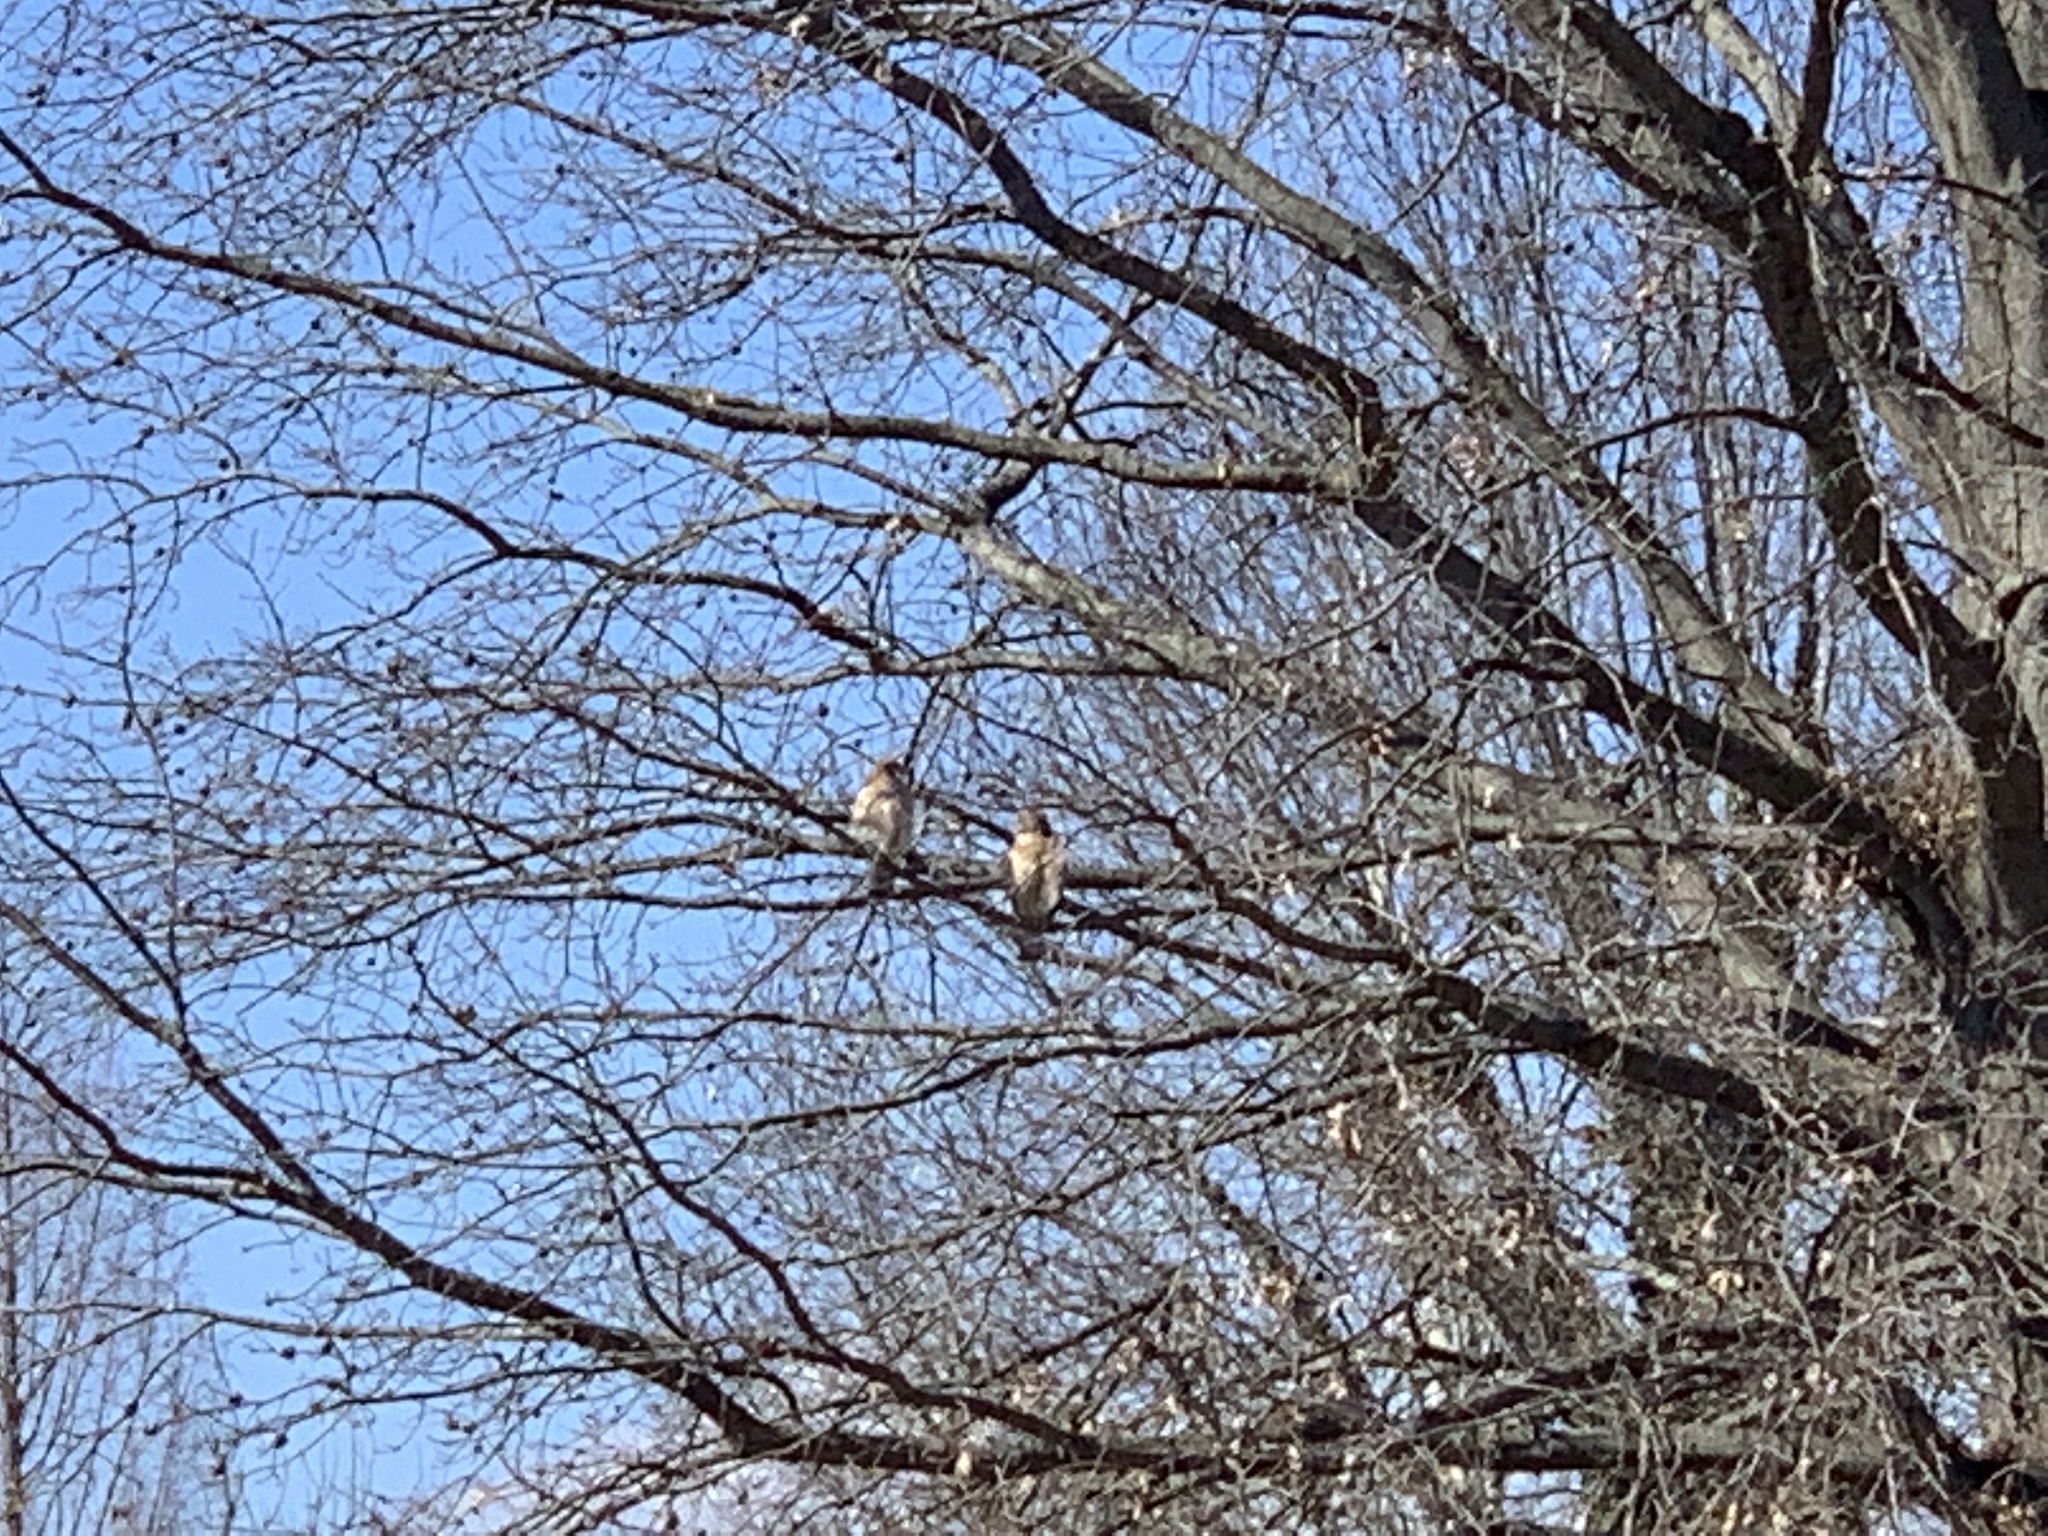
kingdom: Animalia
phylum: Chordata
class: Aves
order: Accipitriformes
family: Accipitridae
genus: Buteo
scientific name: Buteo lineatus
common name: Red-shouldered hawk
